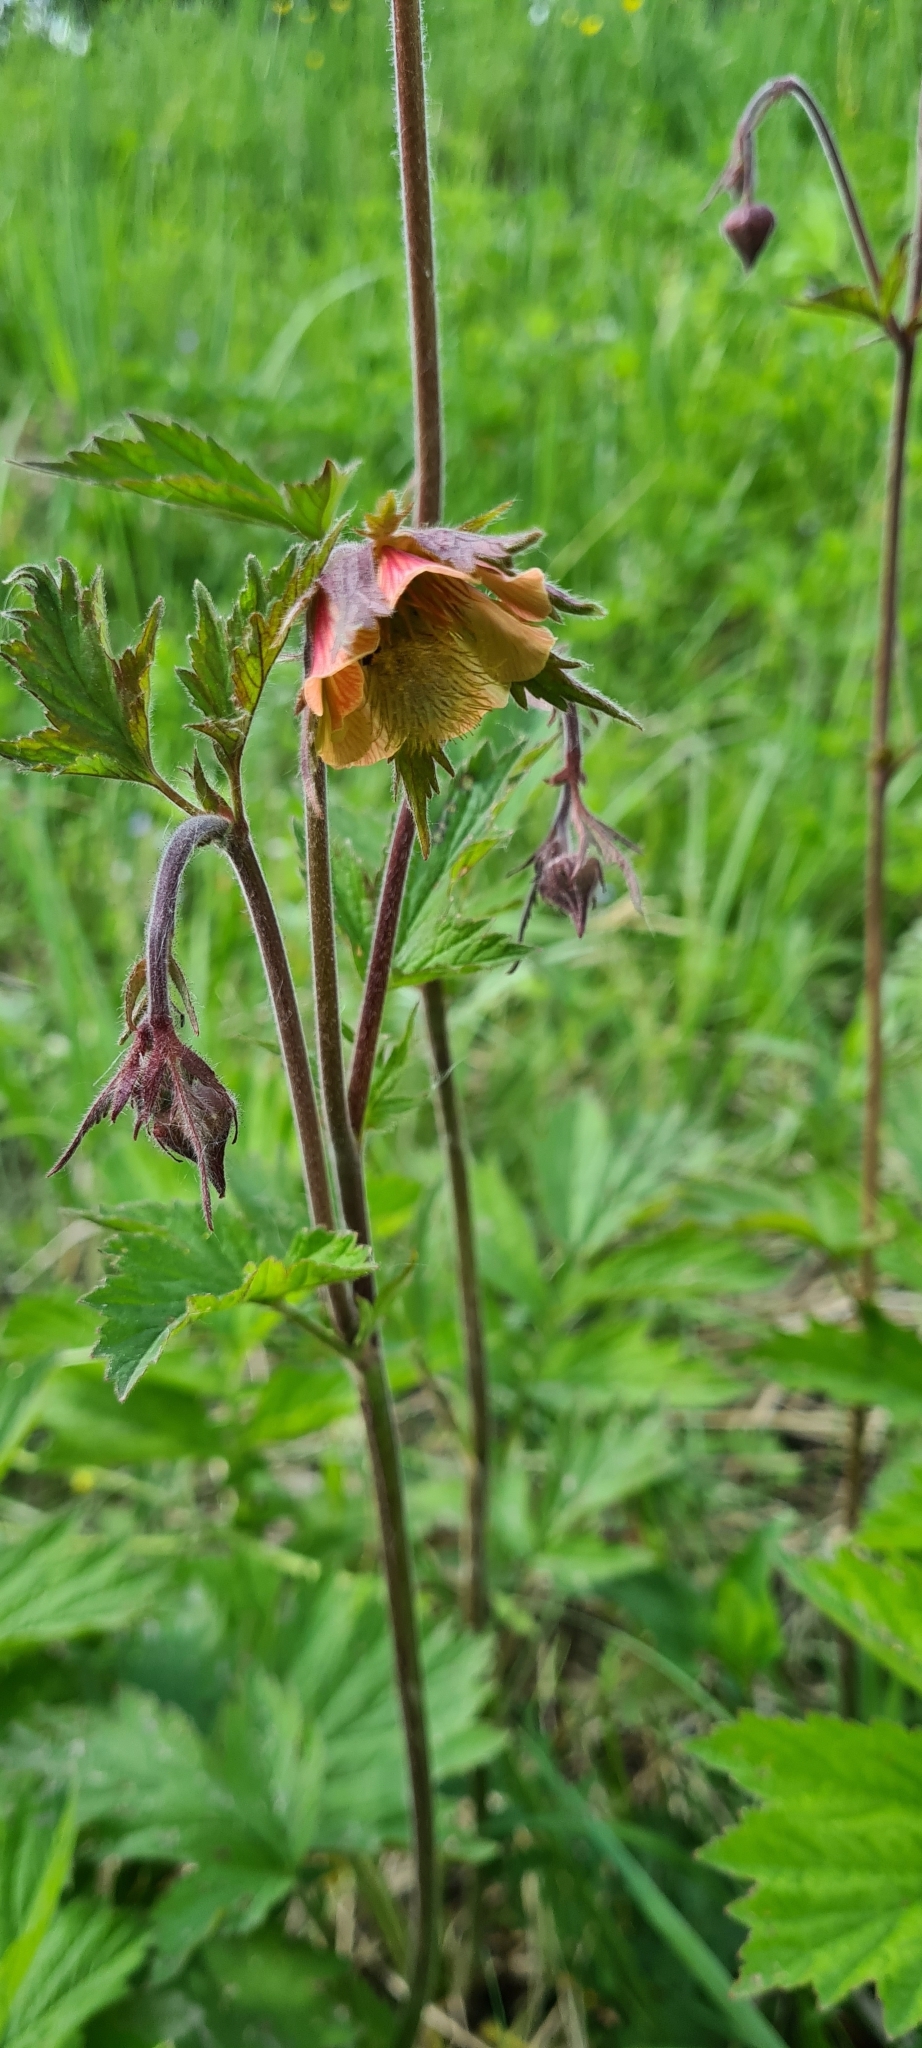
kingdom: Plantae
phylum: Tracheophyta
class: Magnoliopsida
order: Rosales
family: Rosaceae
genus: Geum
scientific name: Geum rivale
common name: Water avens
